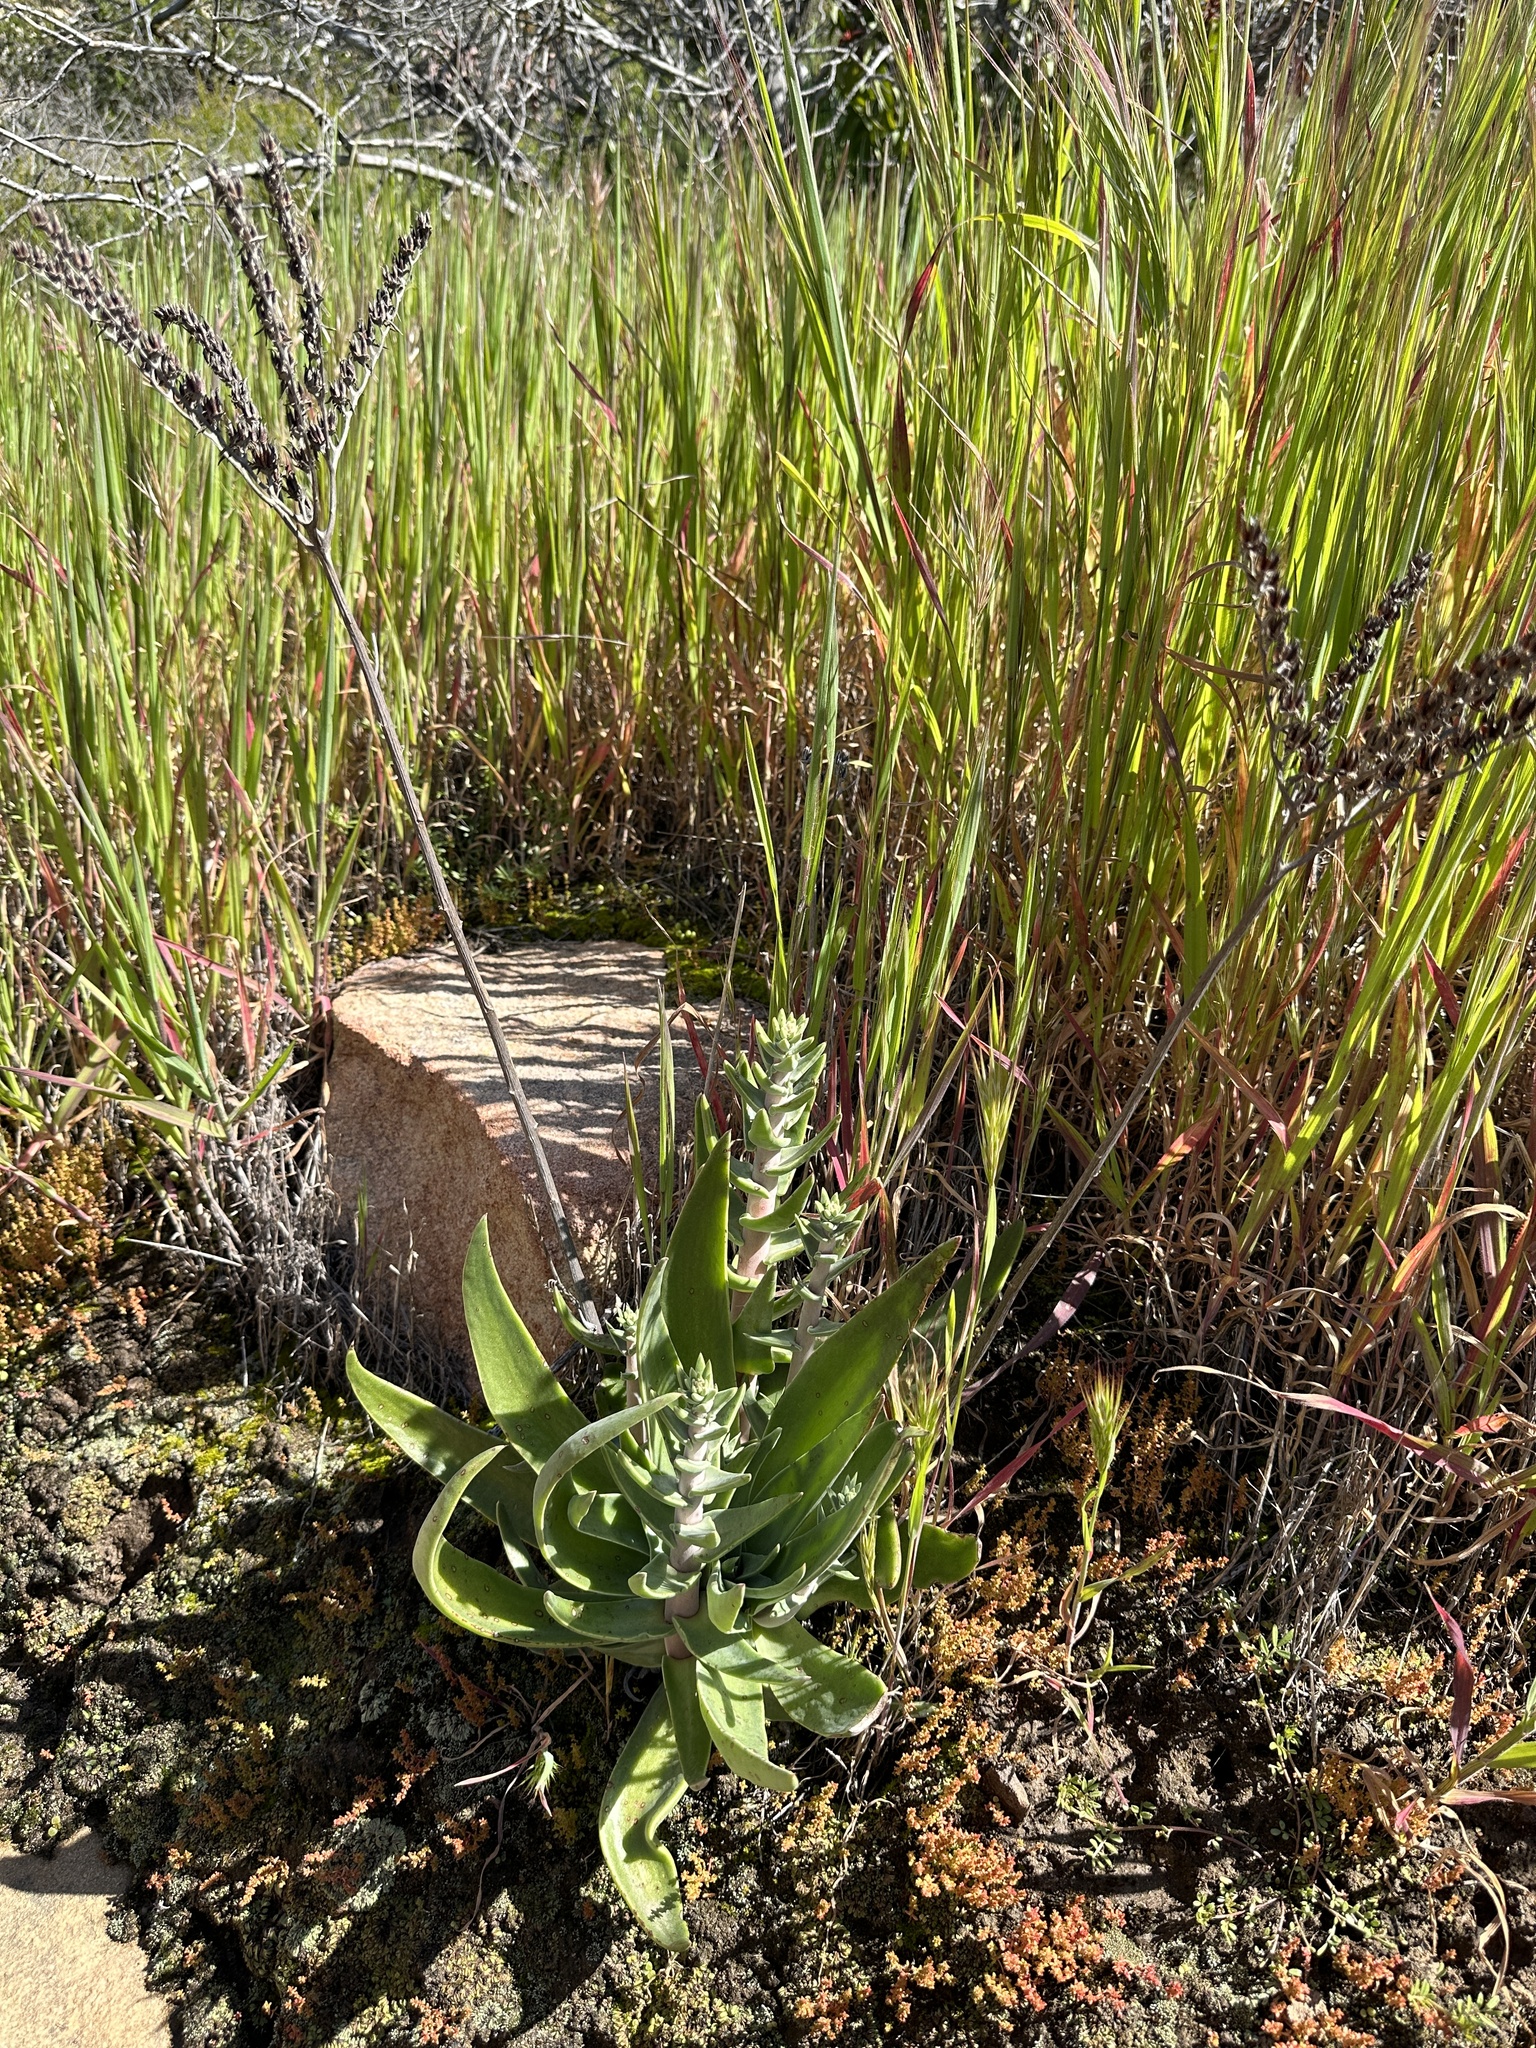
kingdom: Plantae
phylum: Tracheophyta
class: Magnoliopsida
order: Saxifragales
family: Crassulaceae
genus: Dudleya
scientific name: Dudleya lanceolata
